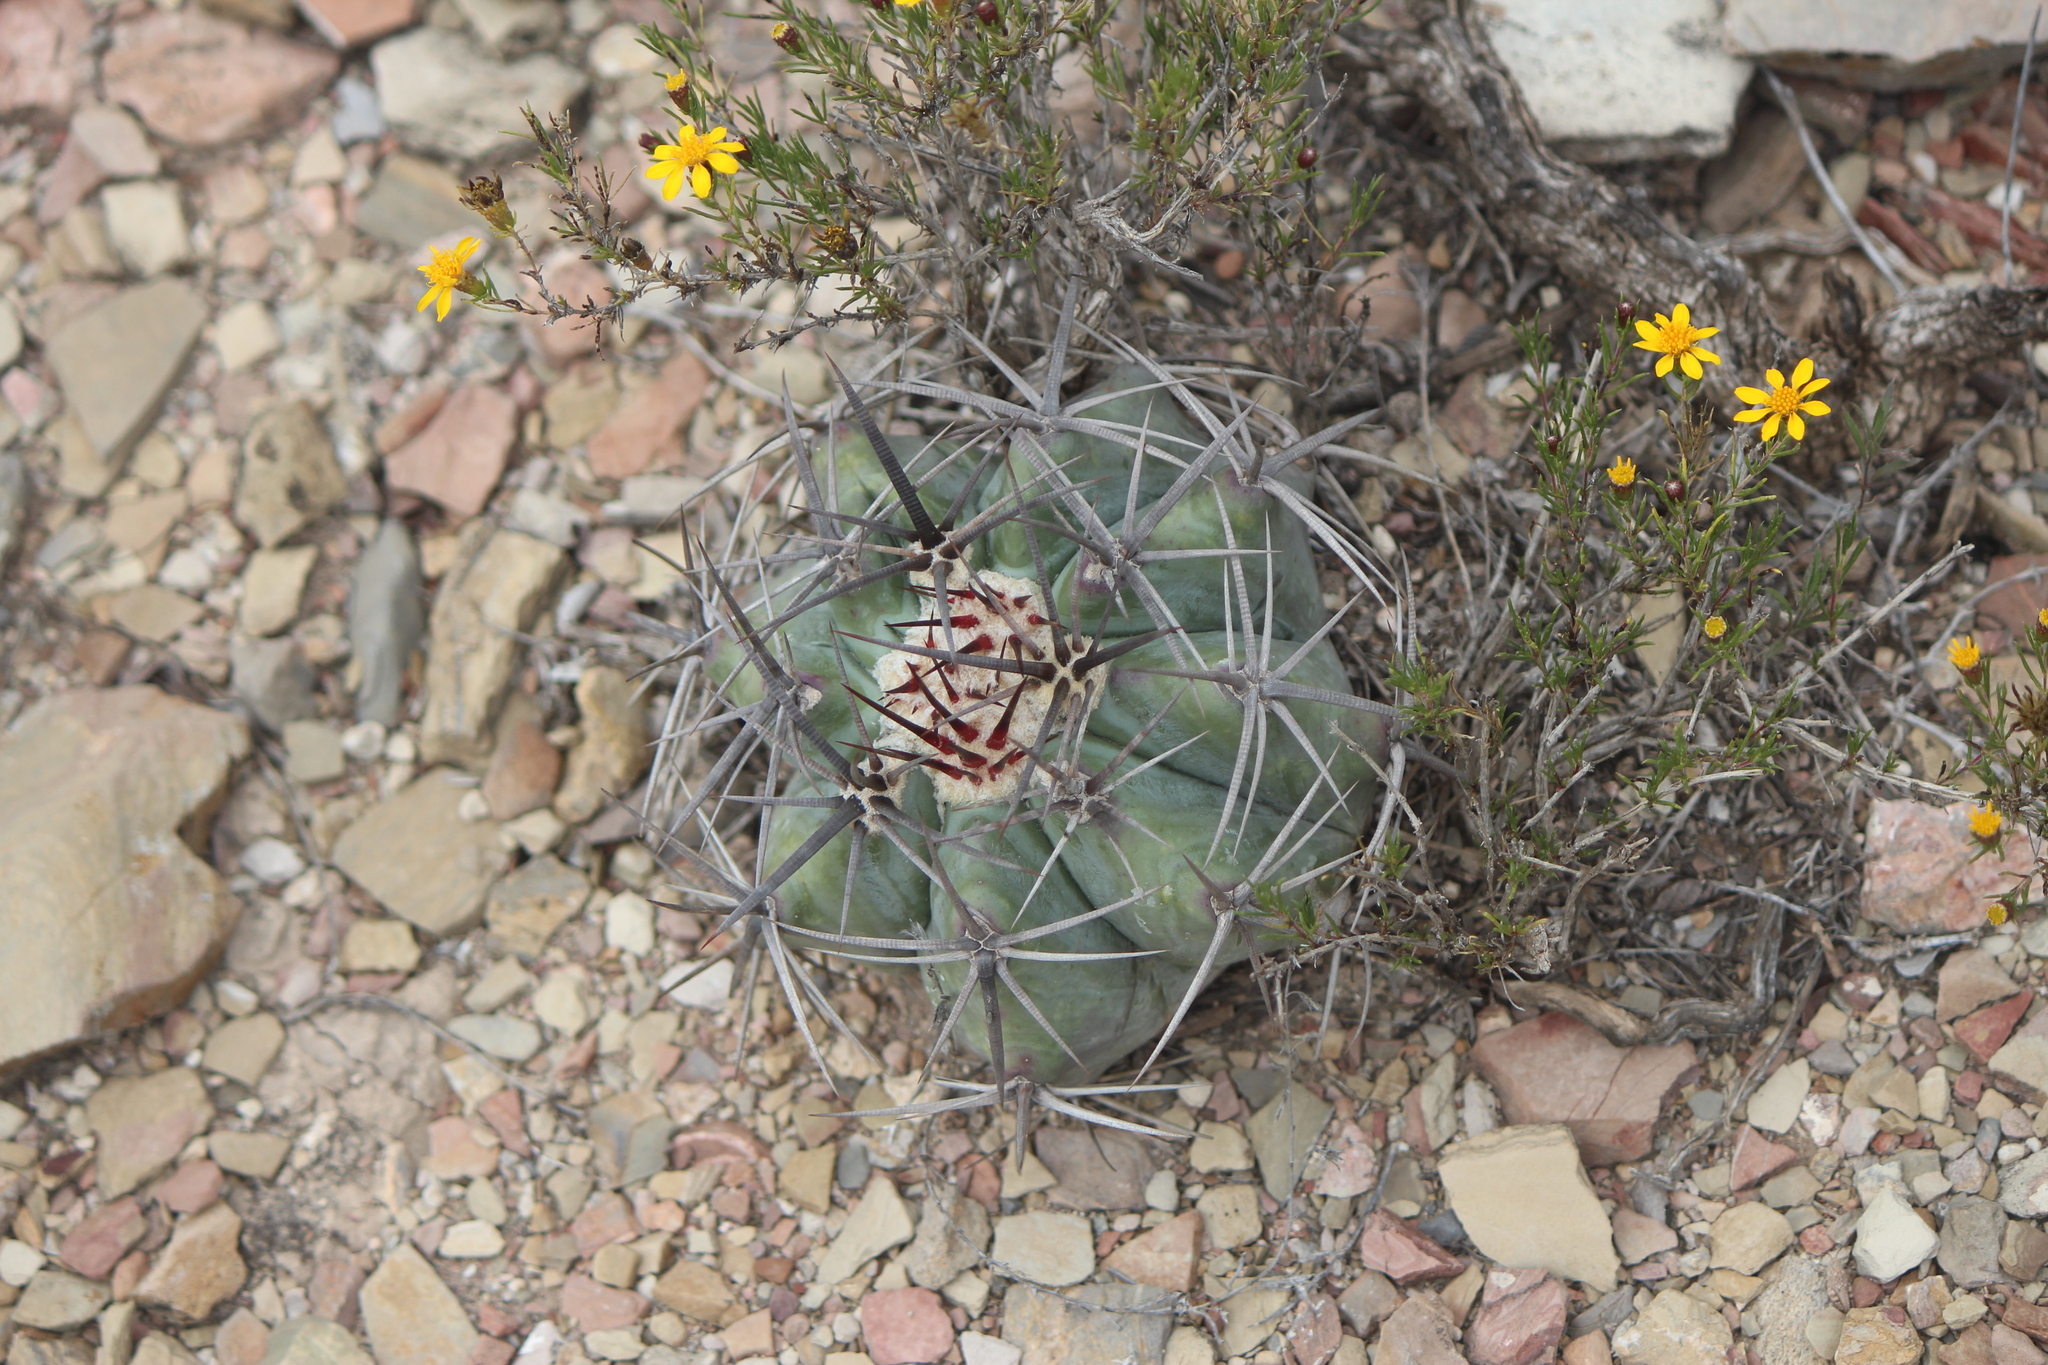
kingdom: Plantae
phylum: Tracheophyta
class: Magnoliopsida
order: Caryophyllales
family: Cactaceae
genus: Echinocactus
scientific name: Echinocactus platyacanthus
